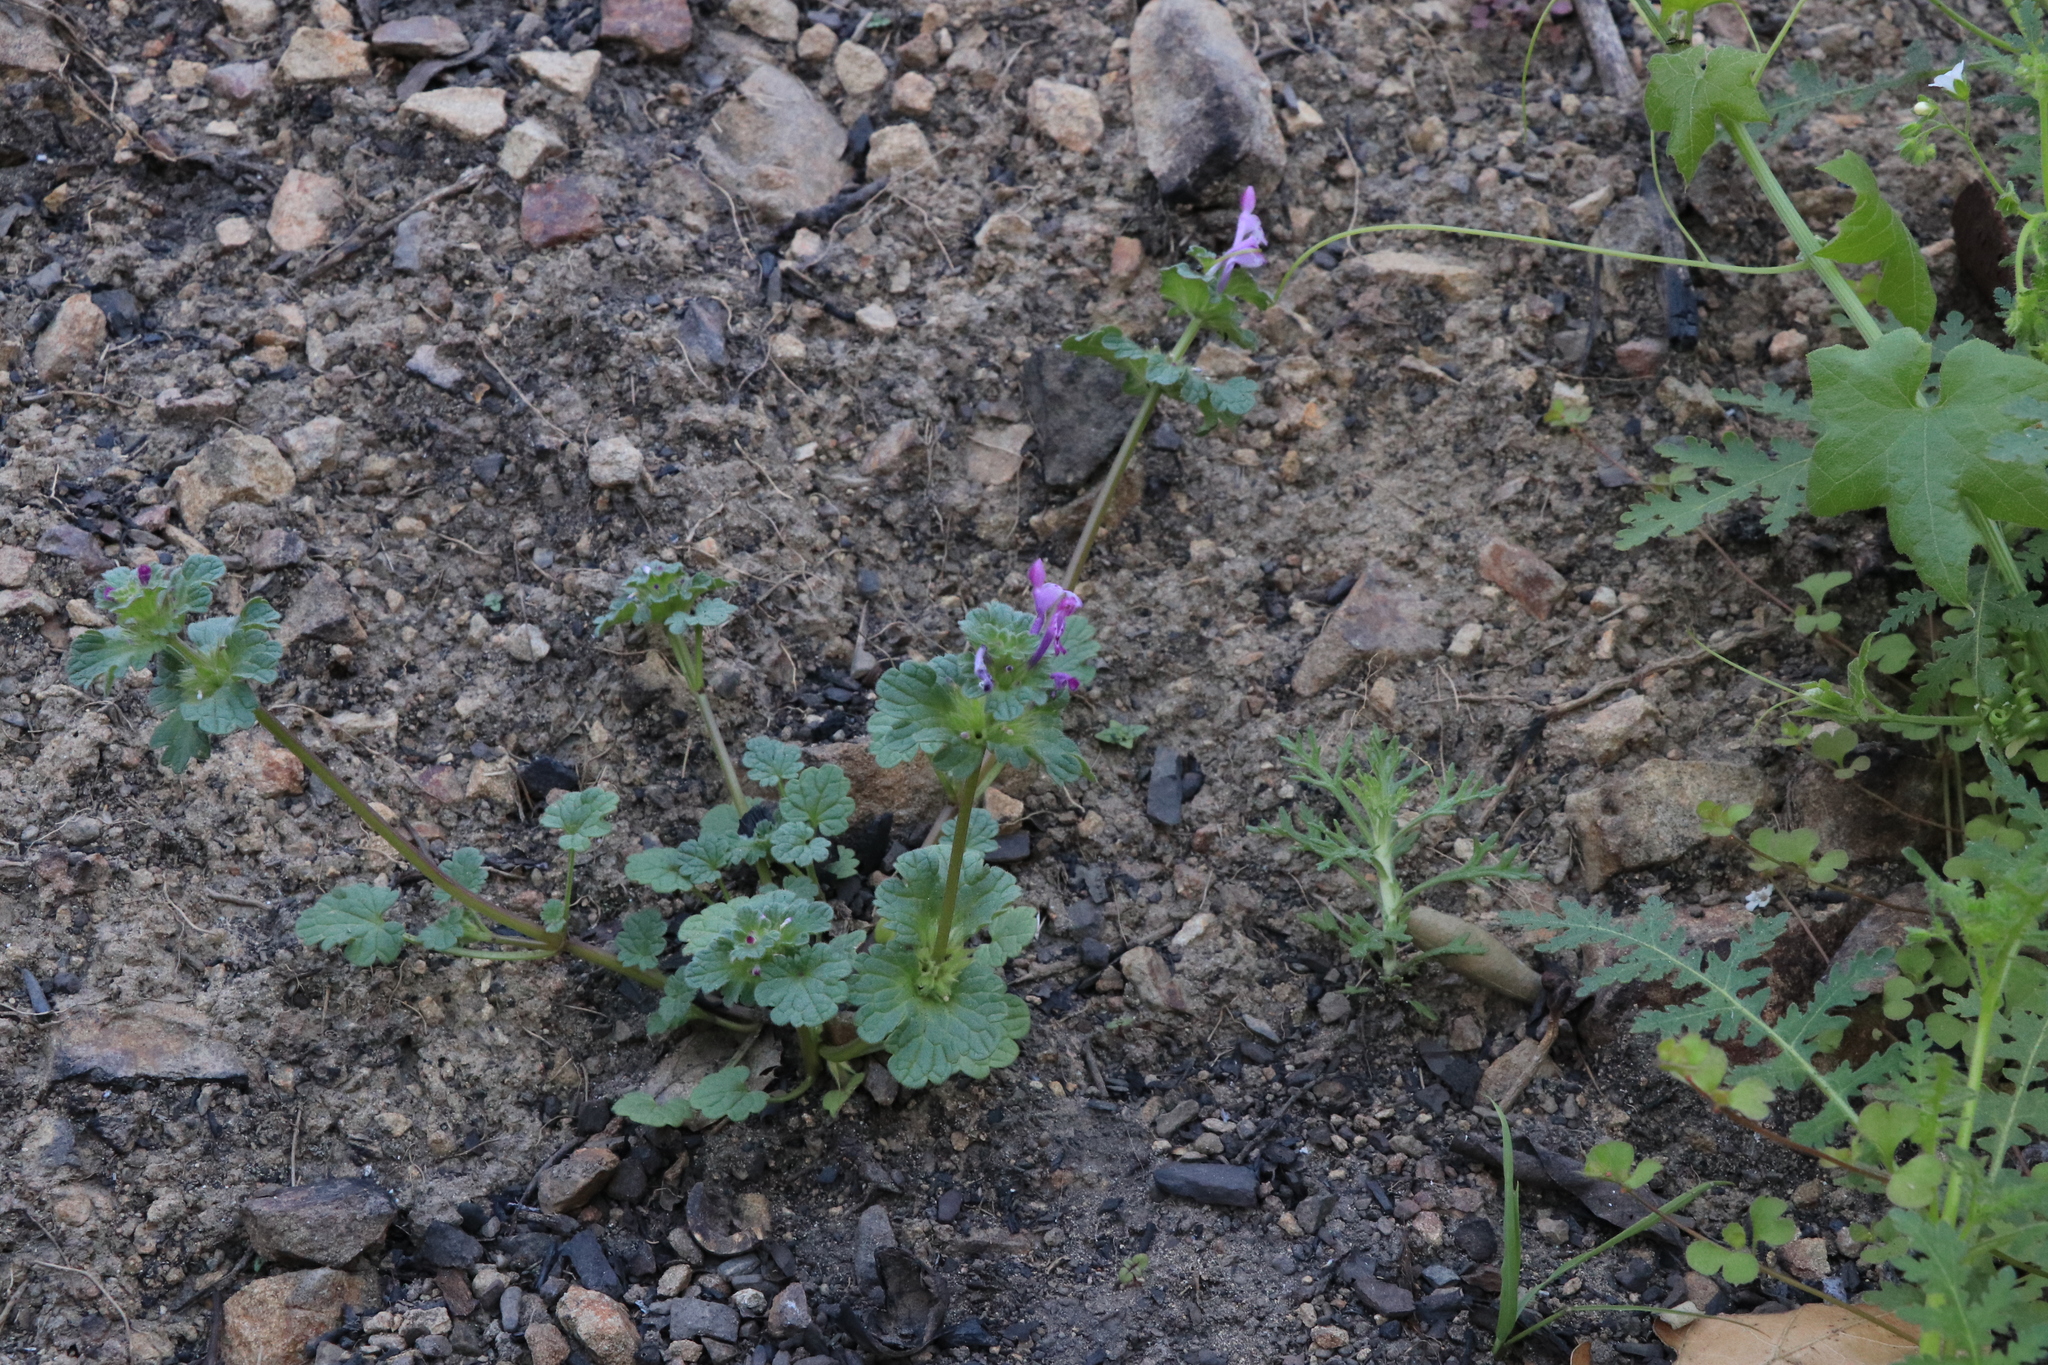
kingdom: Plantae
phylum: Tracheophyta
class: Magnoliopsida
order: Lamiales
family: Lamiaceae
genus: Lamium
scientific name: Lamium amplexicaule
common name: Henbit dead-nettle
